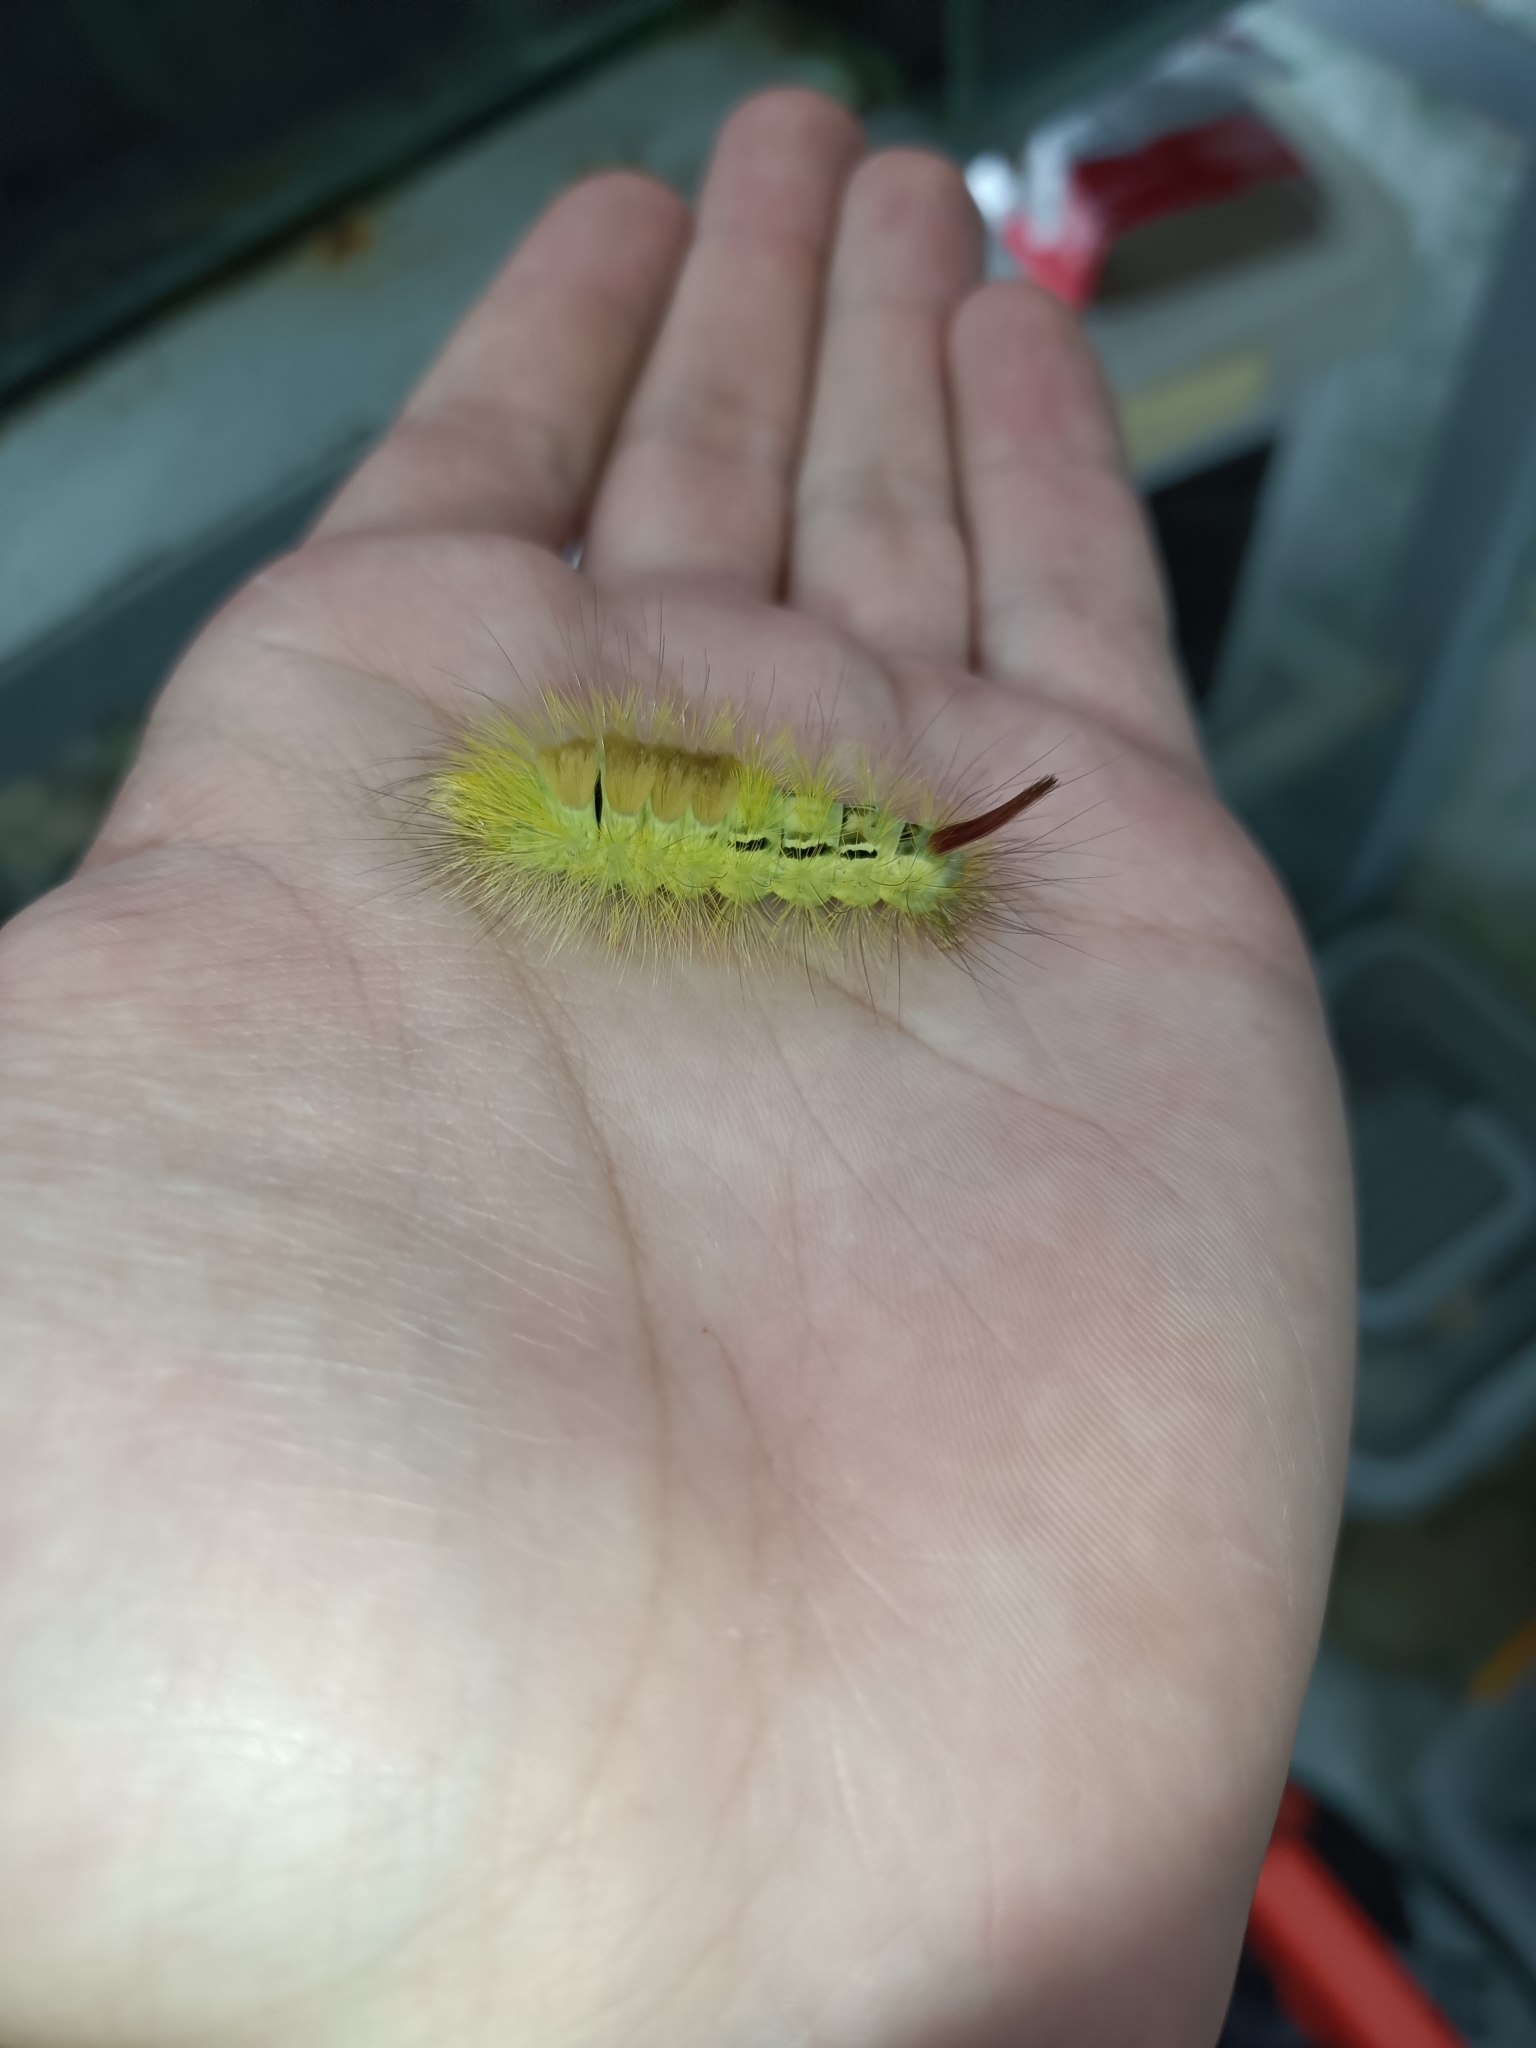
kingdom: Animalia
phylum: Arthropoda
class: Insecta
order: Lepidoptera
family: Erebidae
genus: Calliteara
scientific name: Calliteara pudibunda
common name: Pale tussock
